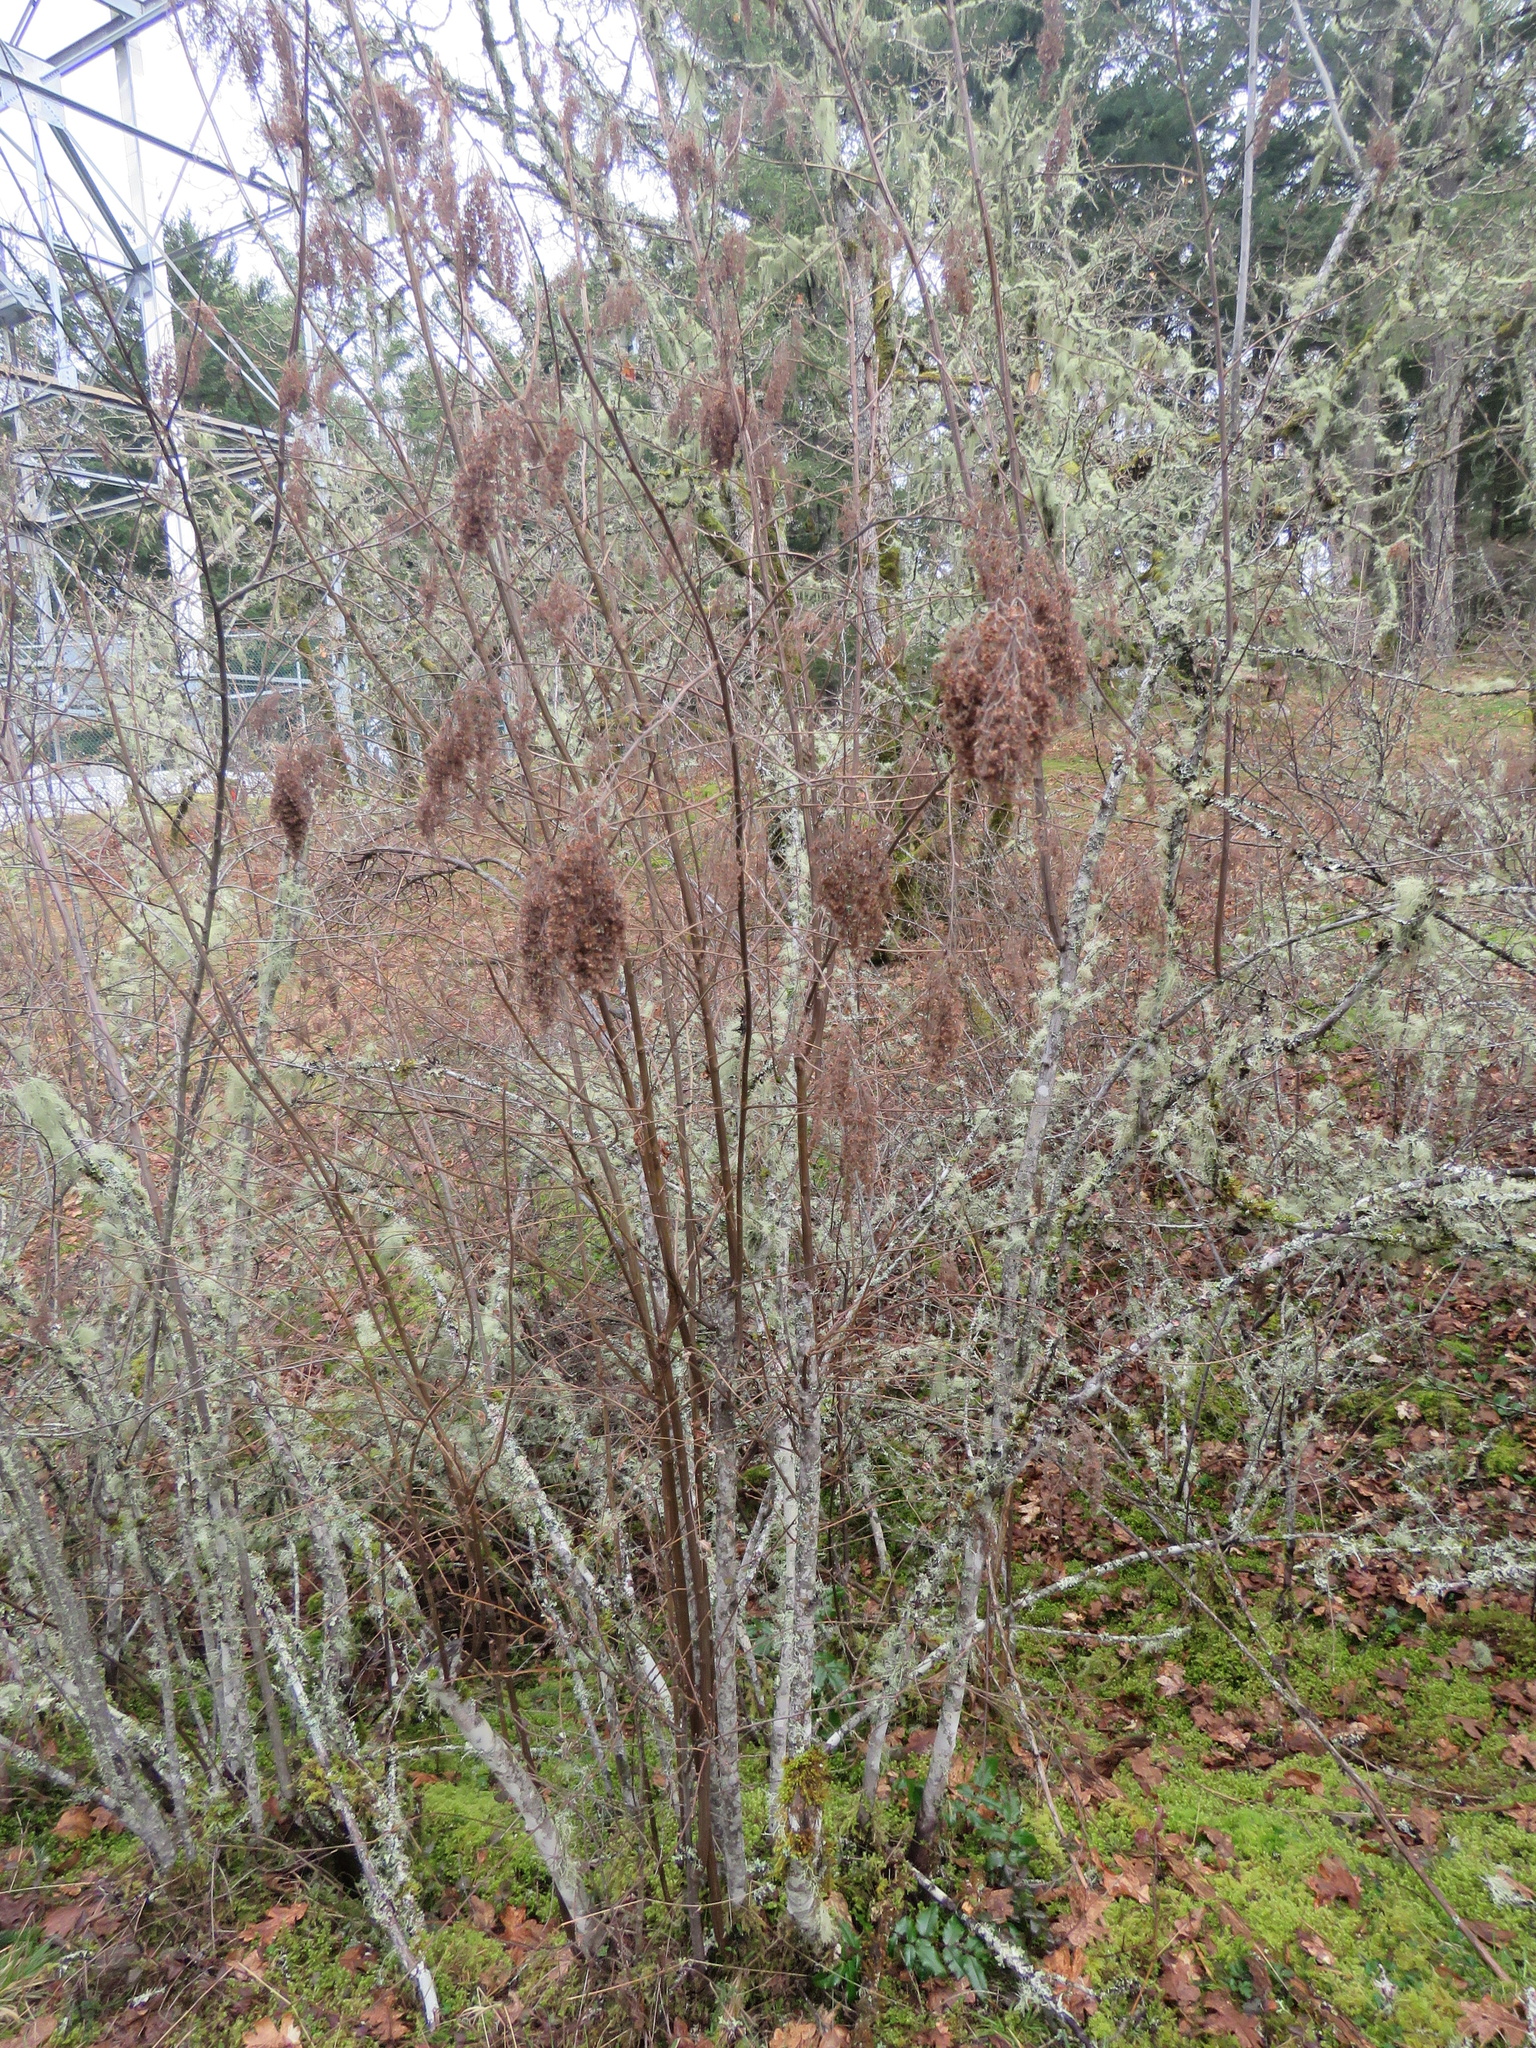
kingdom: Plantae
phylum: Tracheophyta
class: Magnoliopsida
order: Rosales
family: Rosaceae
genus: Holodiscus
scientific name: Holodiscus discolor
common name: Oceanspray
